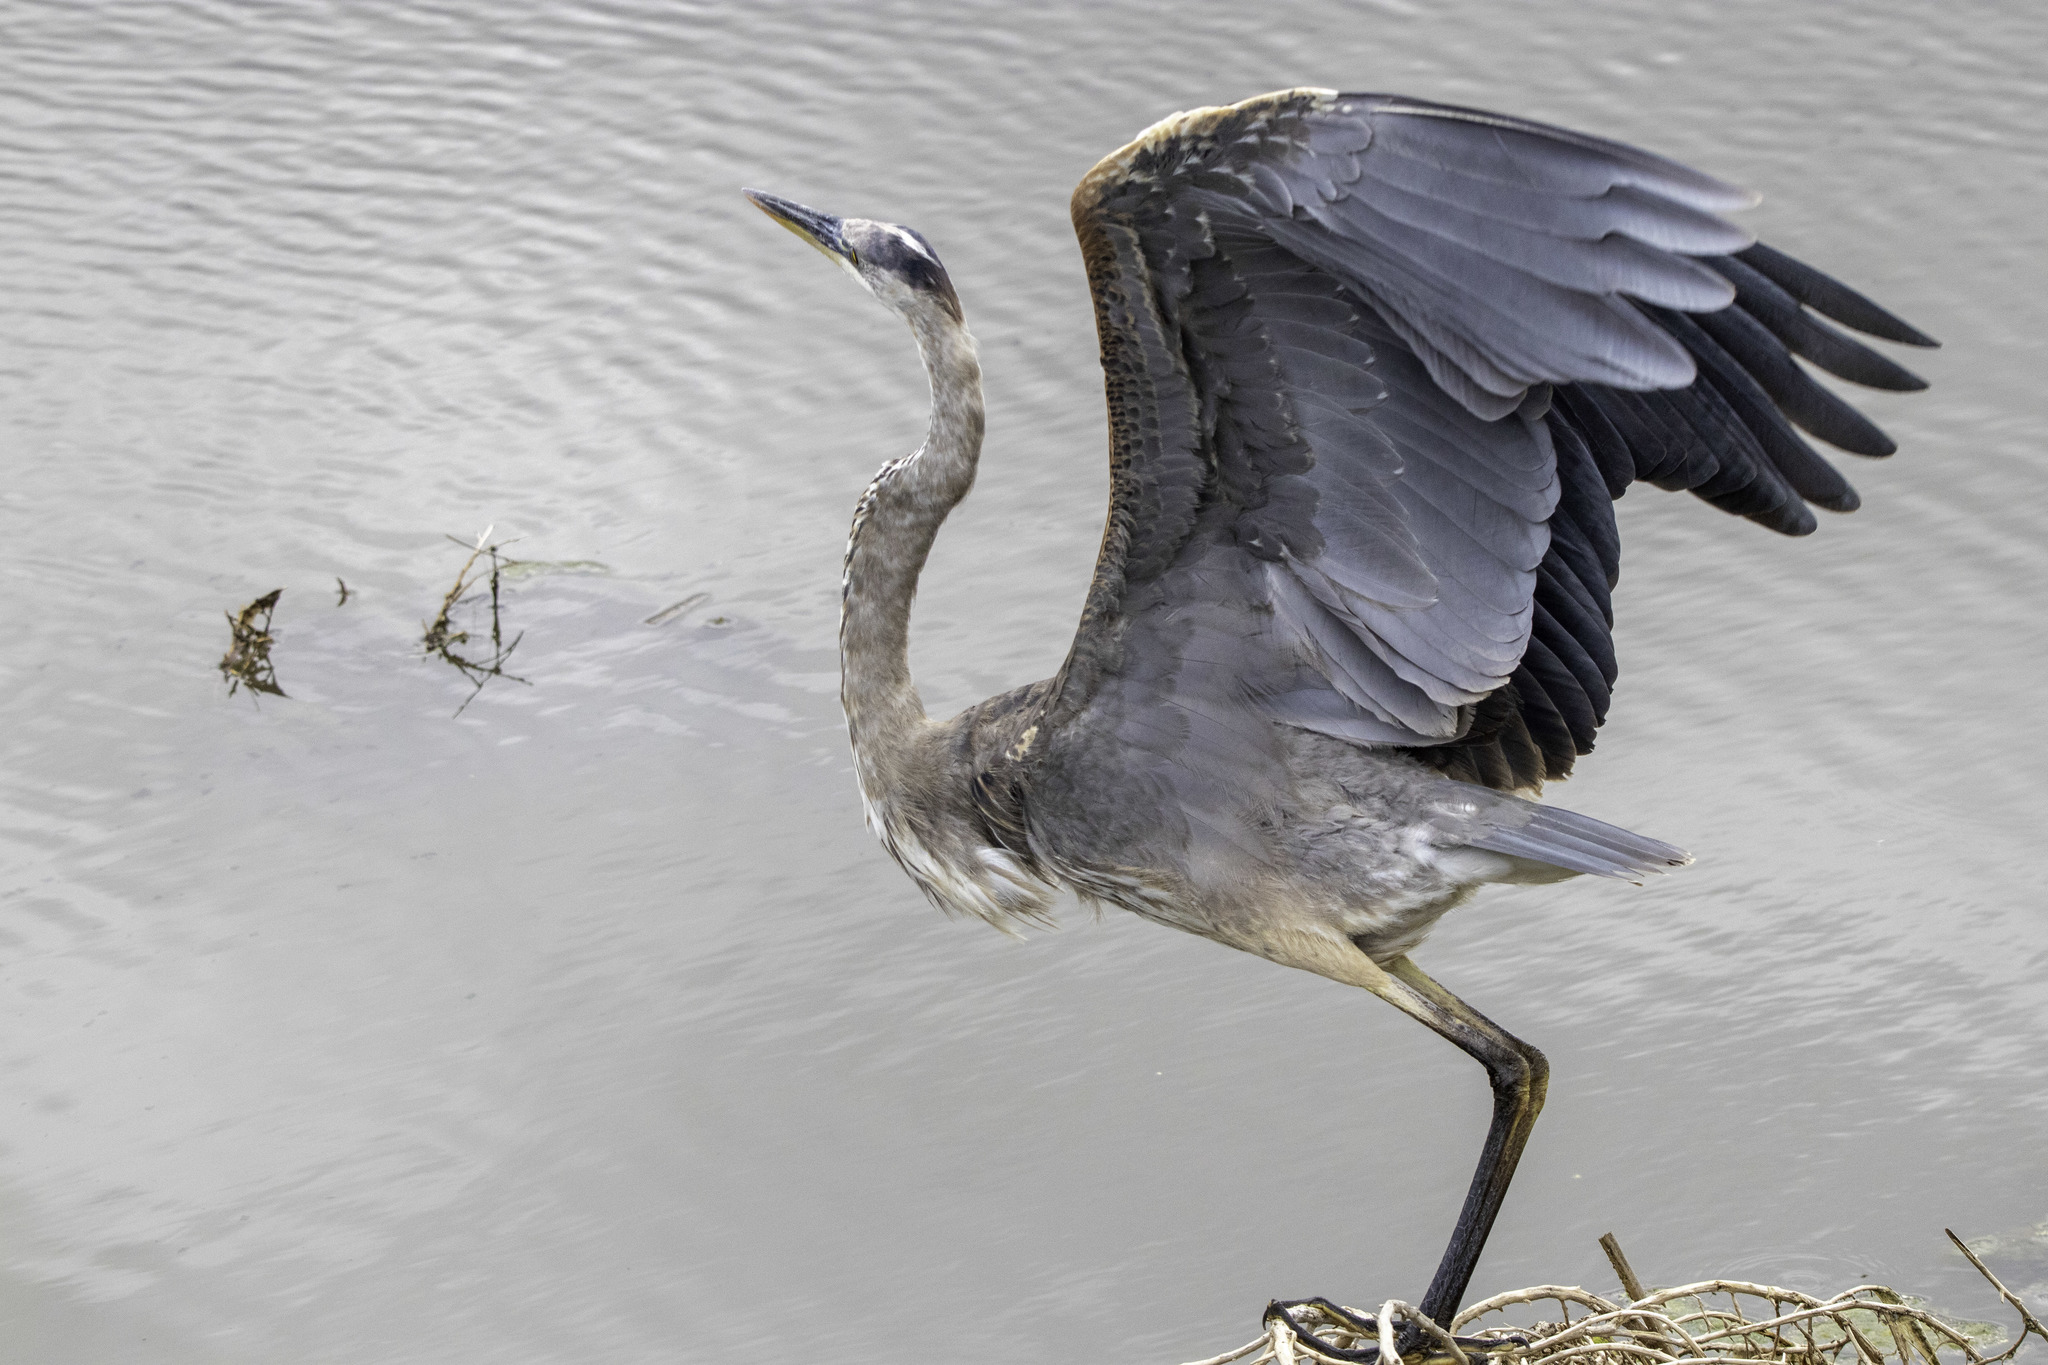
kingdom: Animalia
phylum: Chordata
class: Aves
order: Pelecaniformes
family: Ardeidae
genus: Ardea
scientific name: Ardea herodias
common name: Great blue heron
